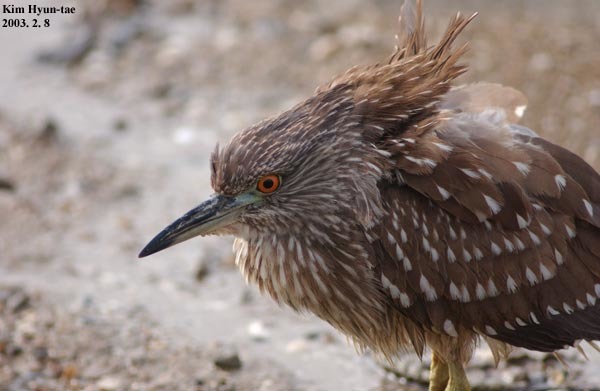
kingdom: Animalia
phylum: Chordata
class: Aves
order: Pelecaniformes
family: Ardeidae
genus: Nycticorax
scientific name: Nycticorax nycticorax
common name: Black-crowned night heron
